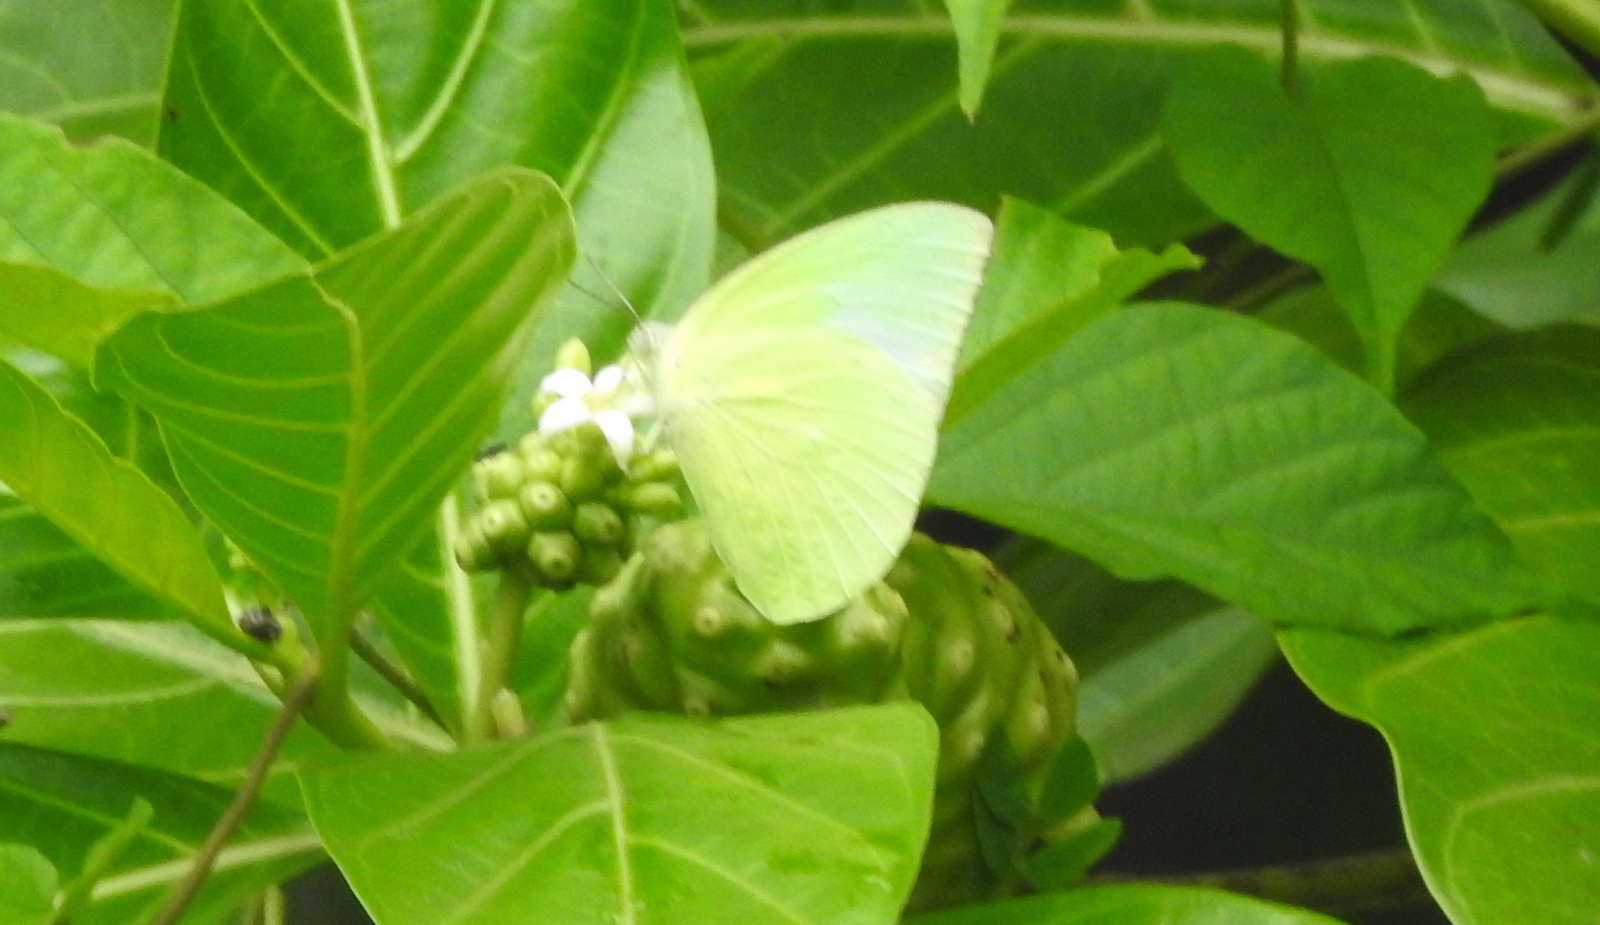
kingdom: Animalia
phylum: Arthropoda
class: Insecta
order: Lepidoptera
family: Pieridae
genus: Catopsilia
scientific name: Catopsilia pomona
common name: Common emigrant
